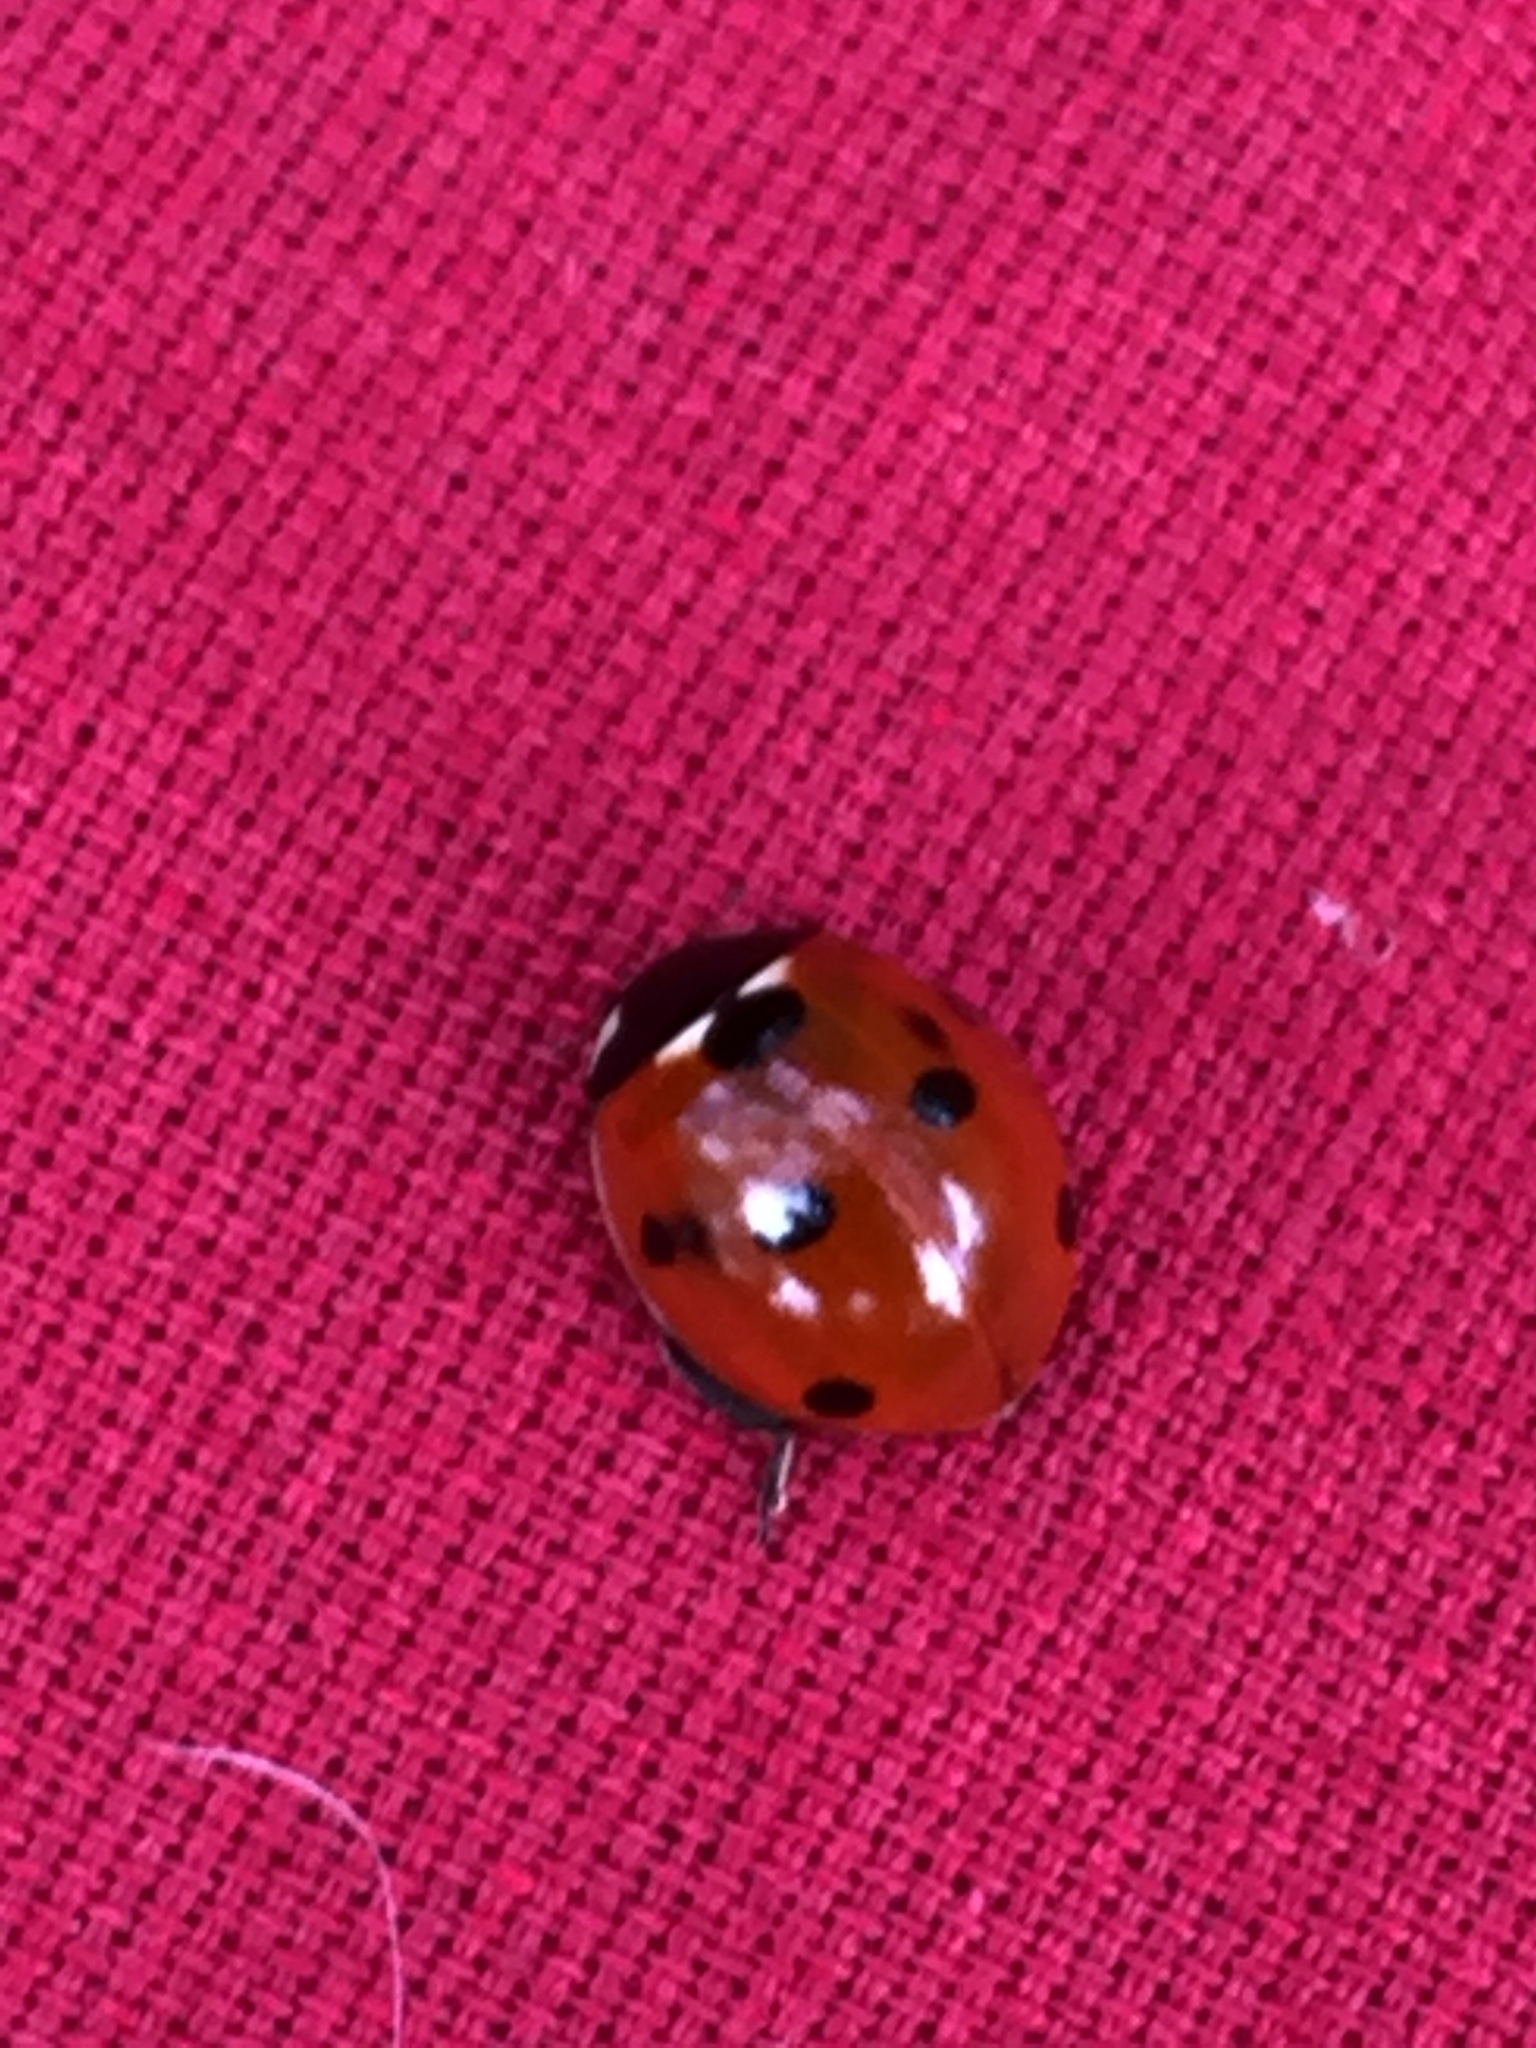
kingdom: Animalia
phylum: Arthropoda
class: Insecta
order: Coleoptera
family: Coccinellidae
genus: Coccinella
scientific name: Coccinella septempunctata
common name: Sevenspotted lady beetle
